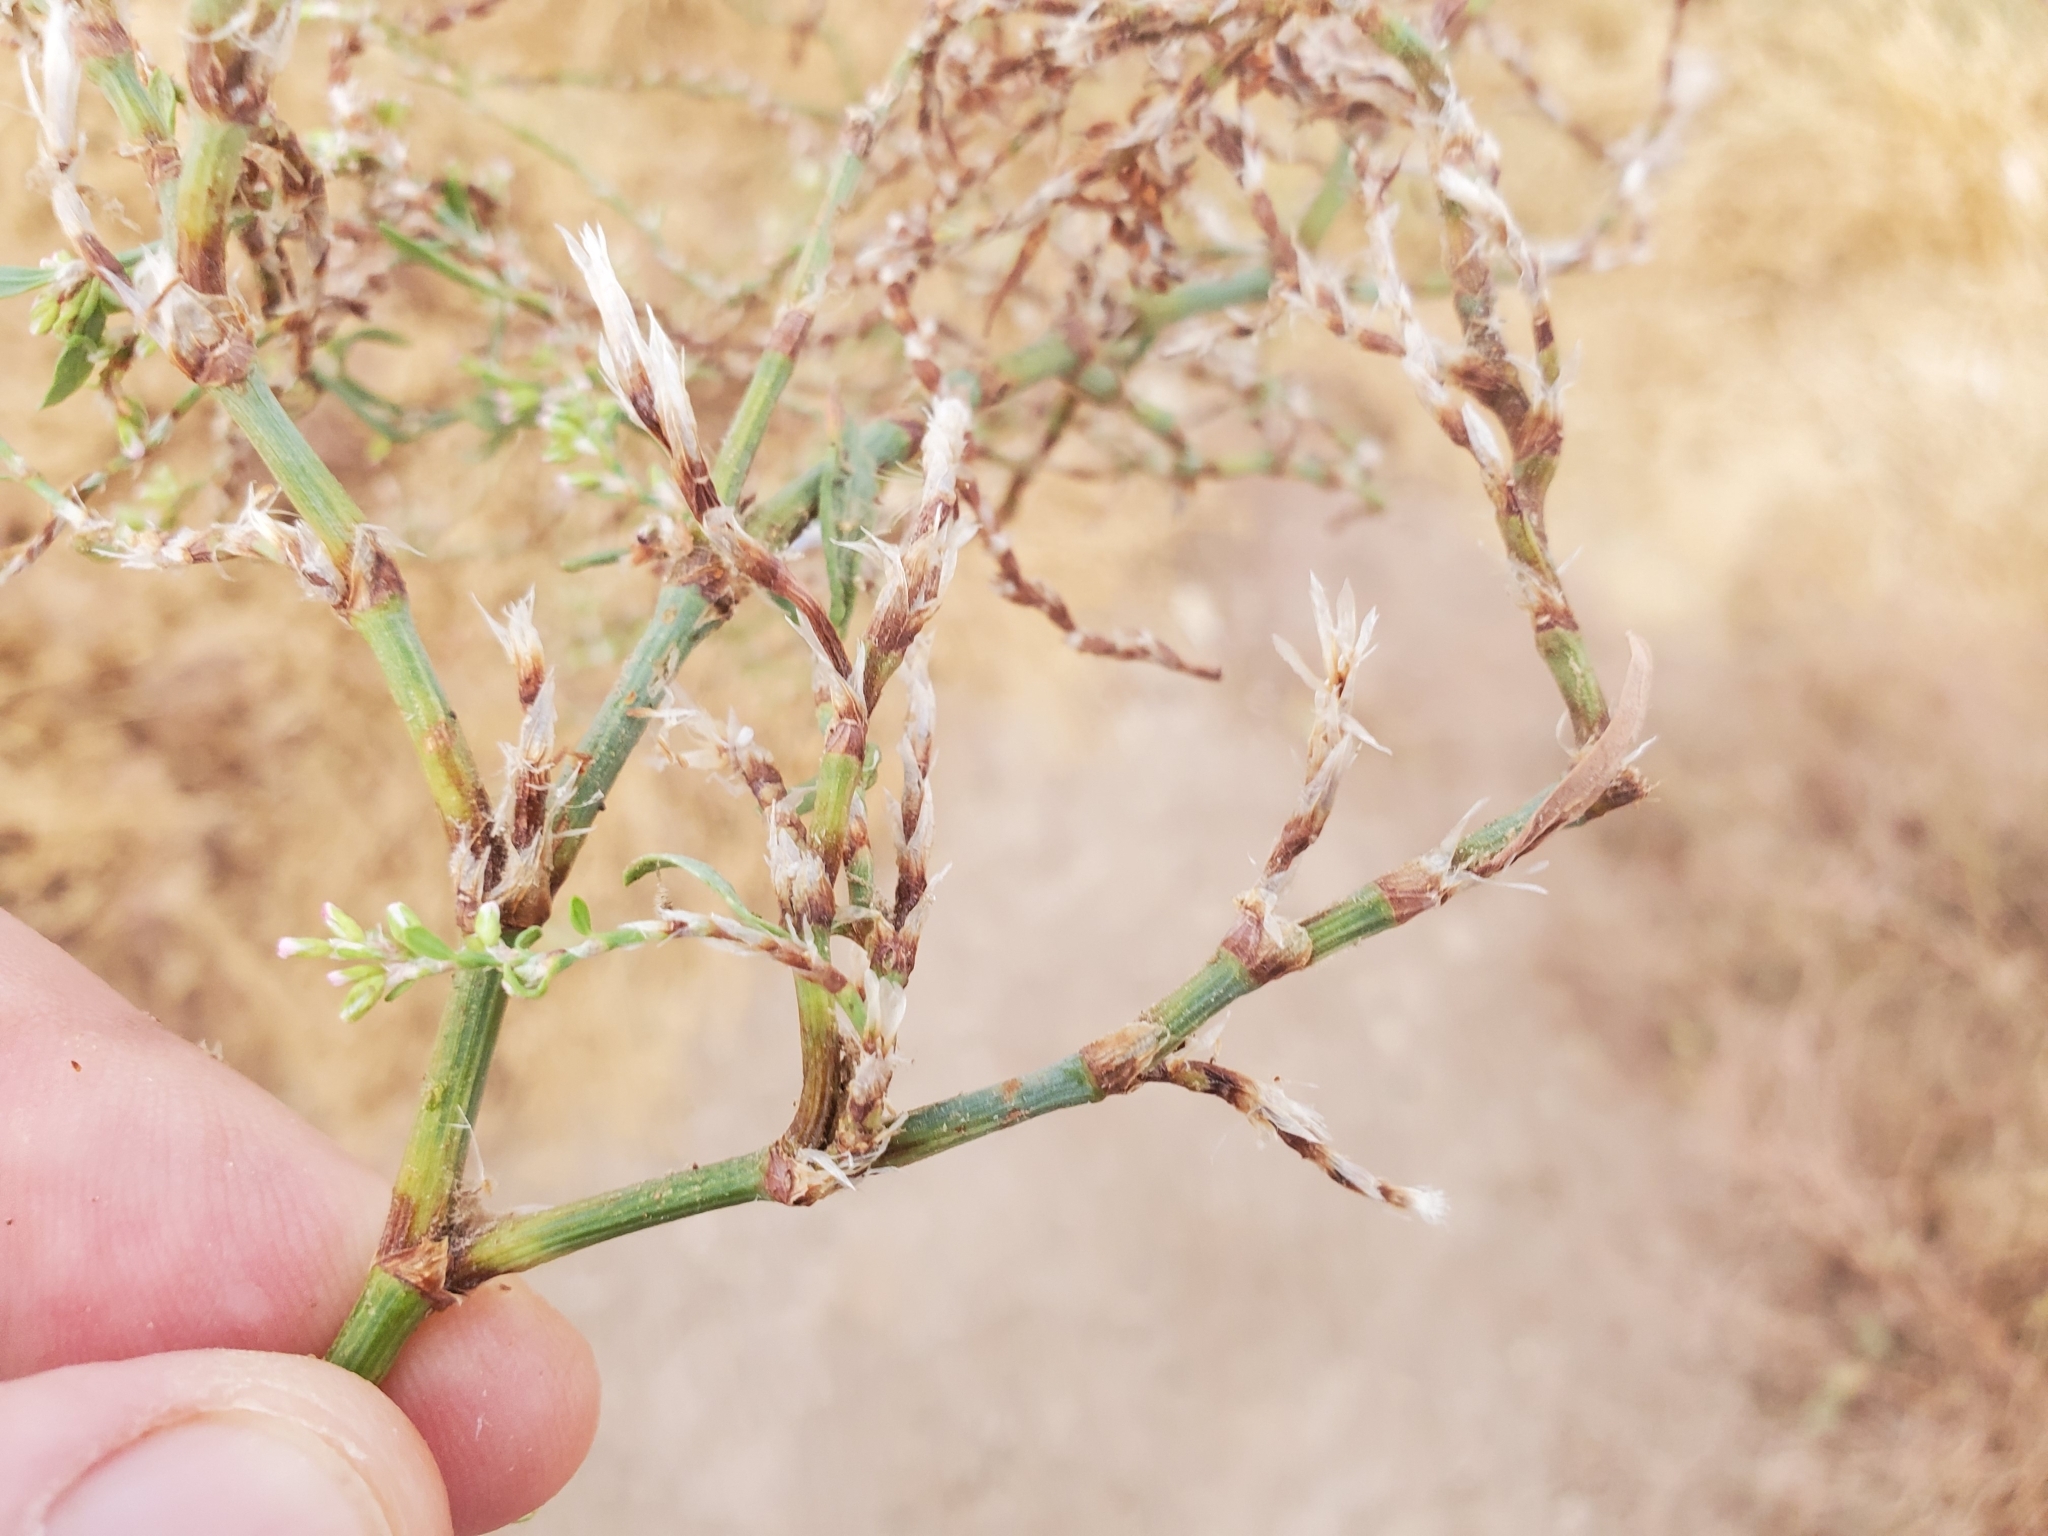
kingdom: Plantae
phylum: Tracheophyta
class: Magnoliopsida
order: Caryophyllales
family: Polygonaceae
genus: Polygonum
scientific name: Polygonum aviculare
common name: Prostrate knotweed
